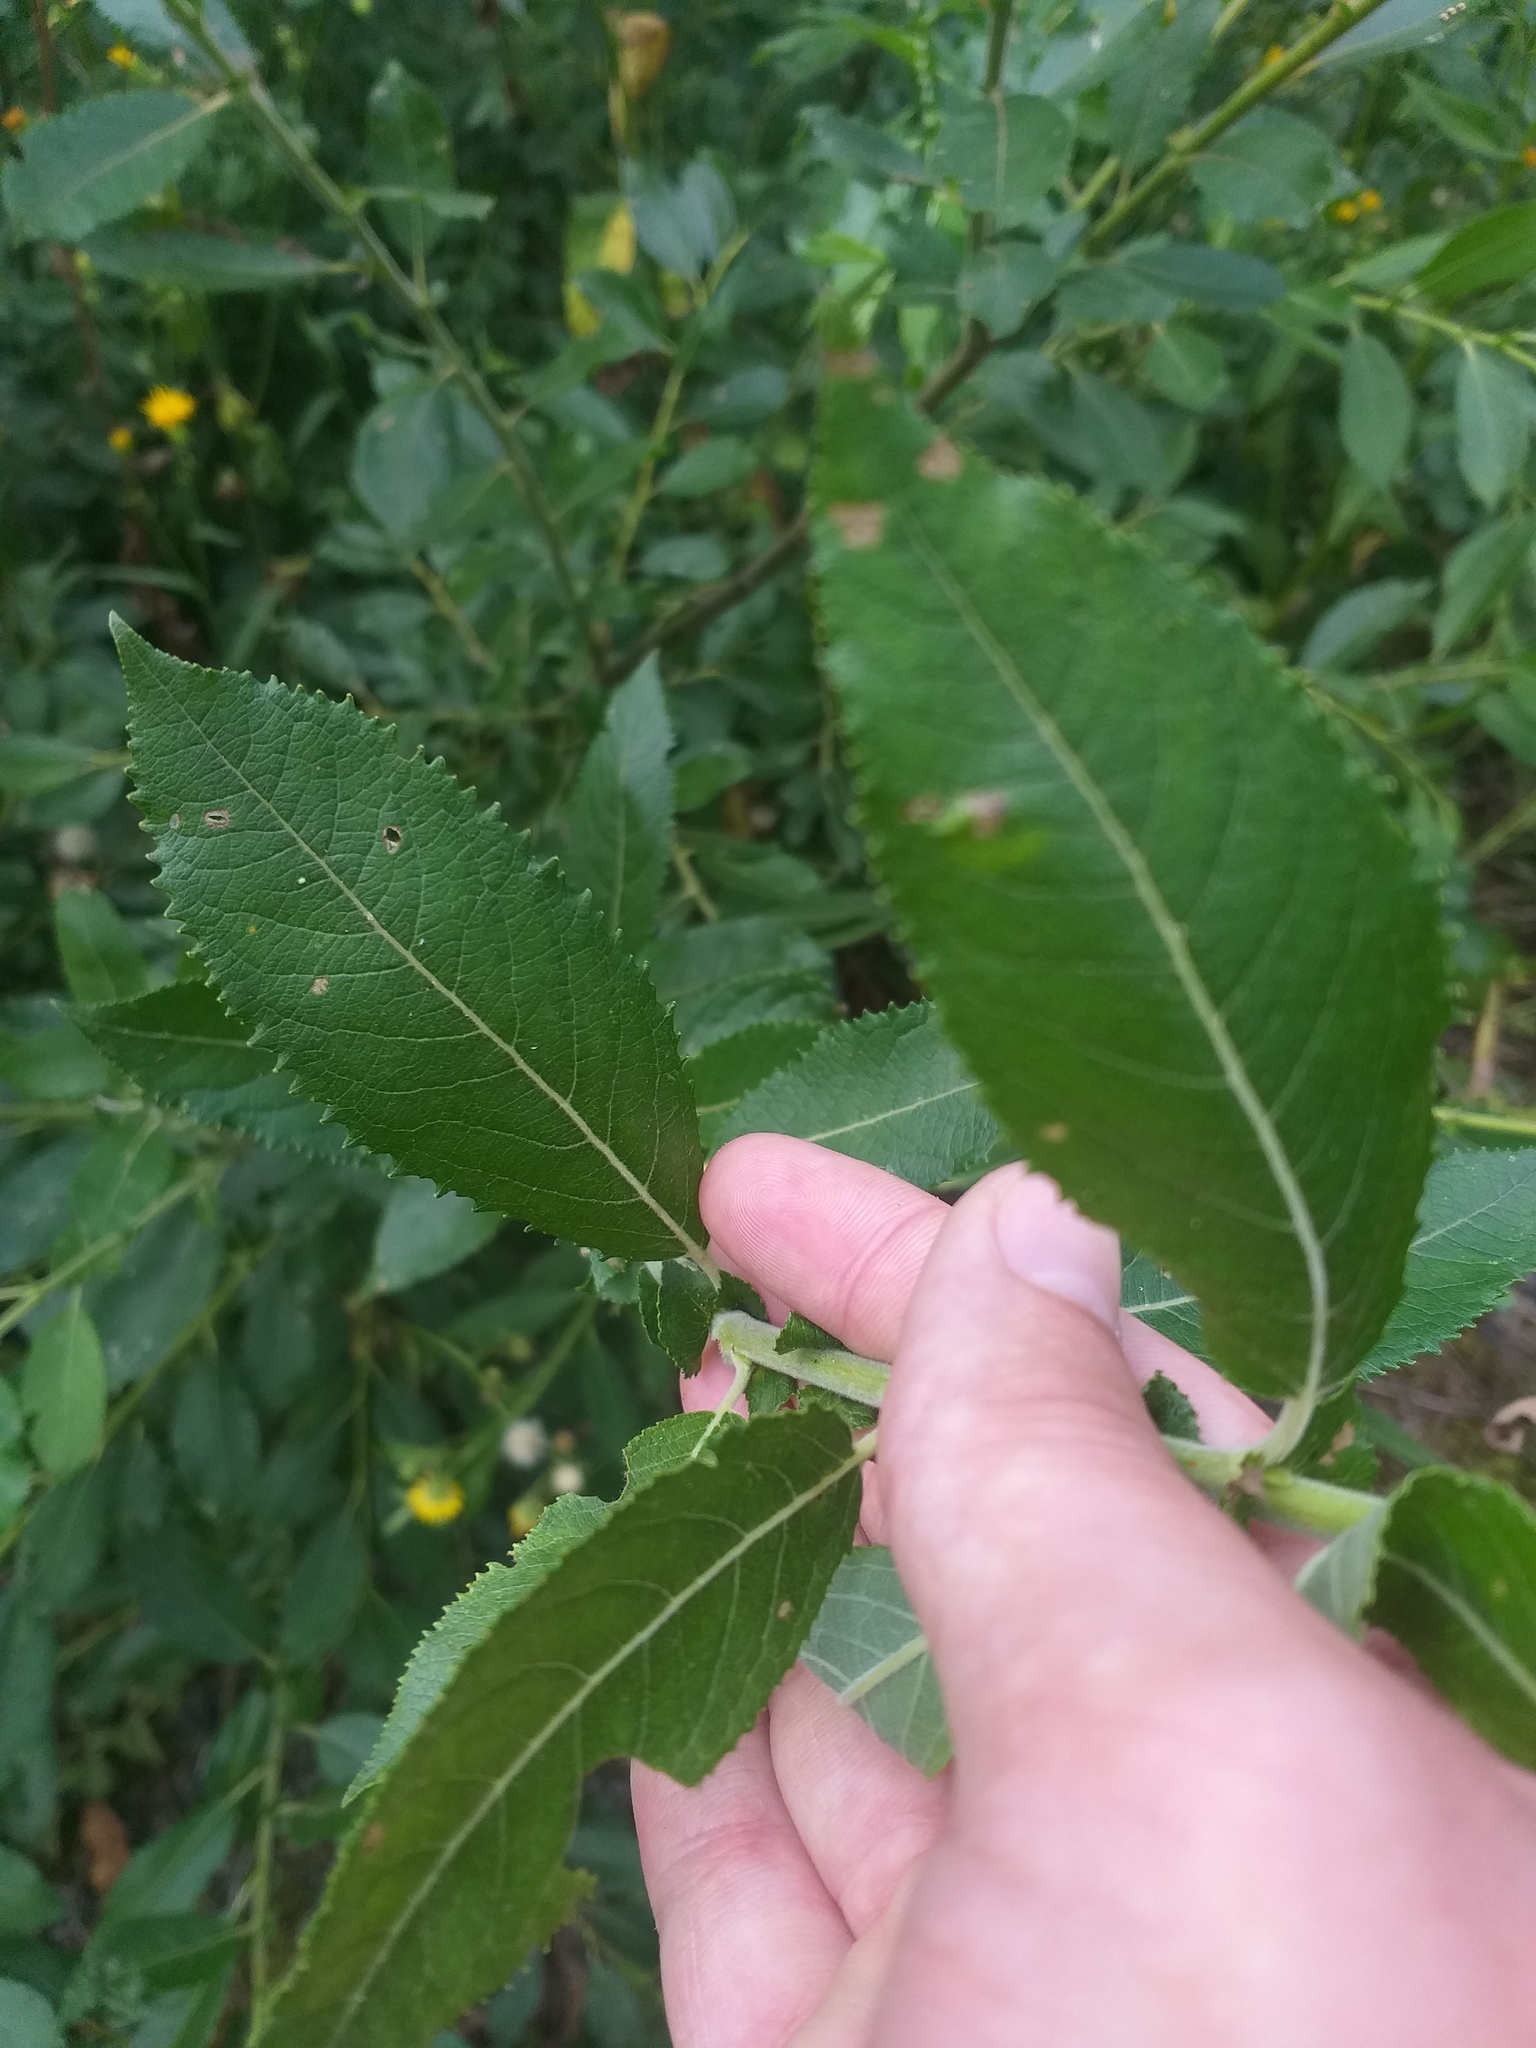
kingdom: Plantae
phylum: Tracheophyta
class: Magnoliopsida
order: Malpighiales
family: Salicaceae
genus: Salix
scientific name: Salix myrsinifolia
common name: Dark-leaved willow
